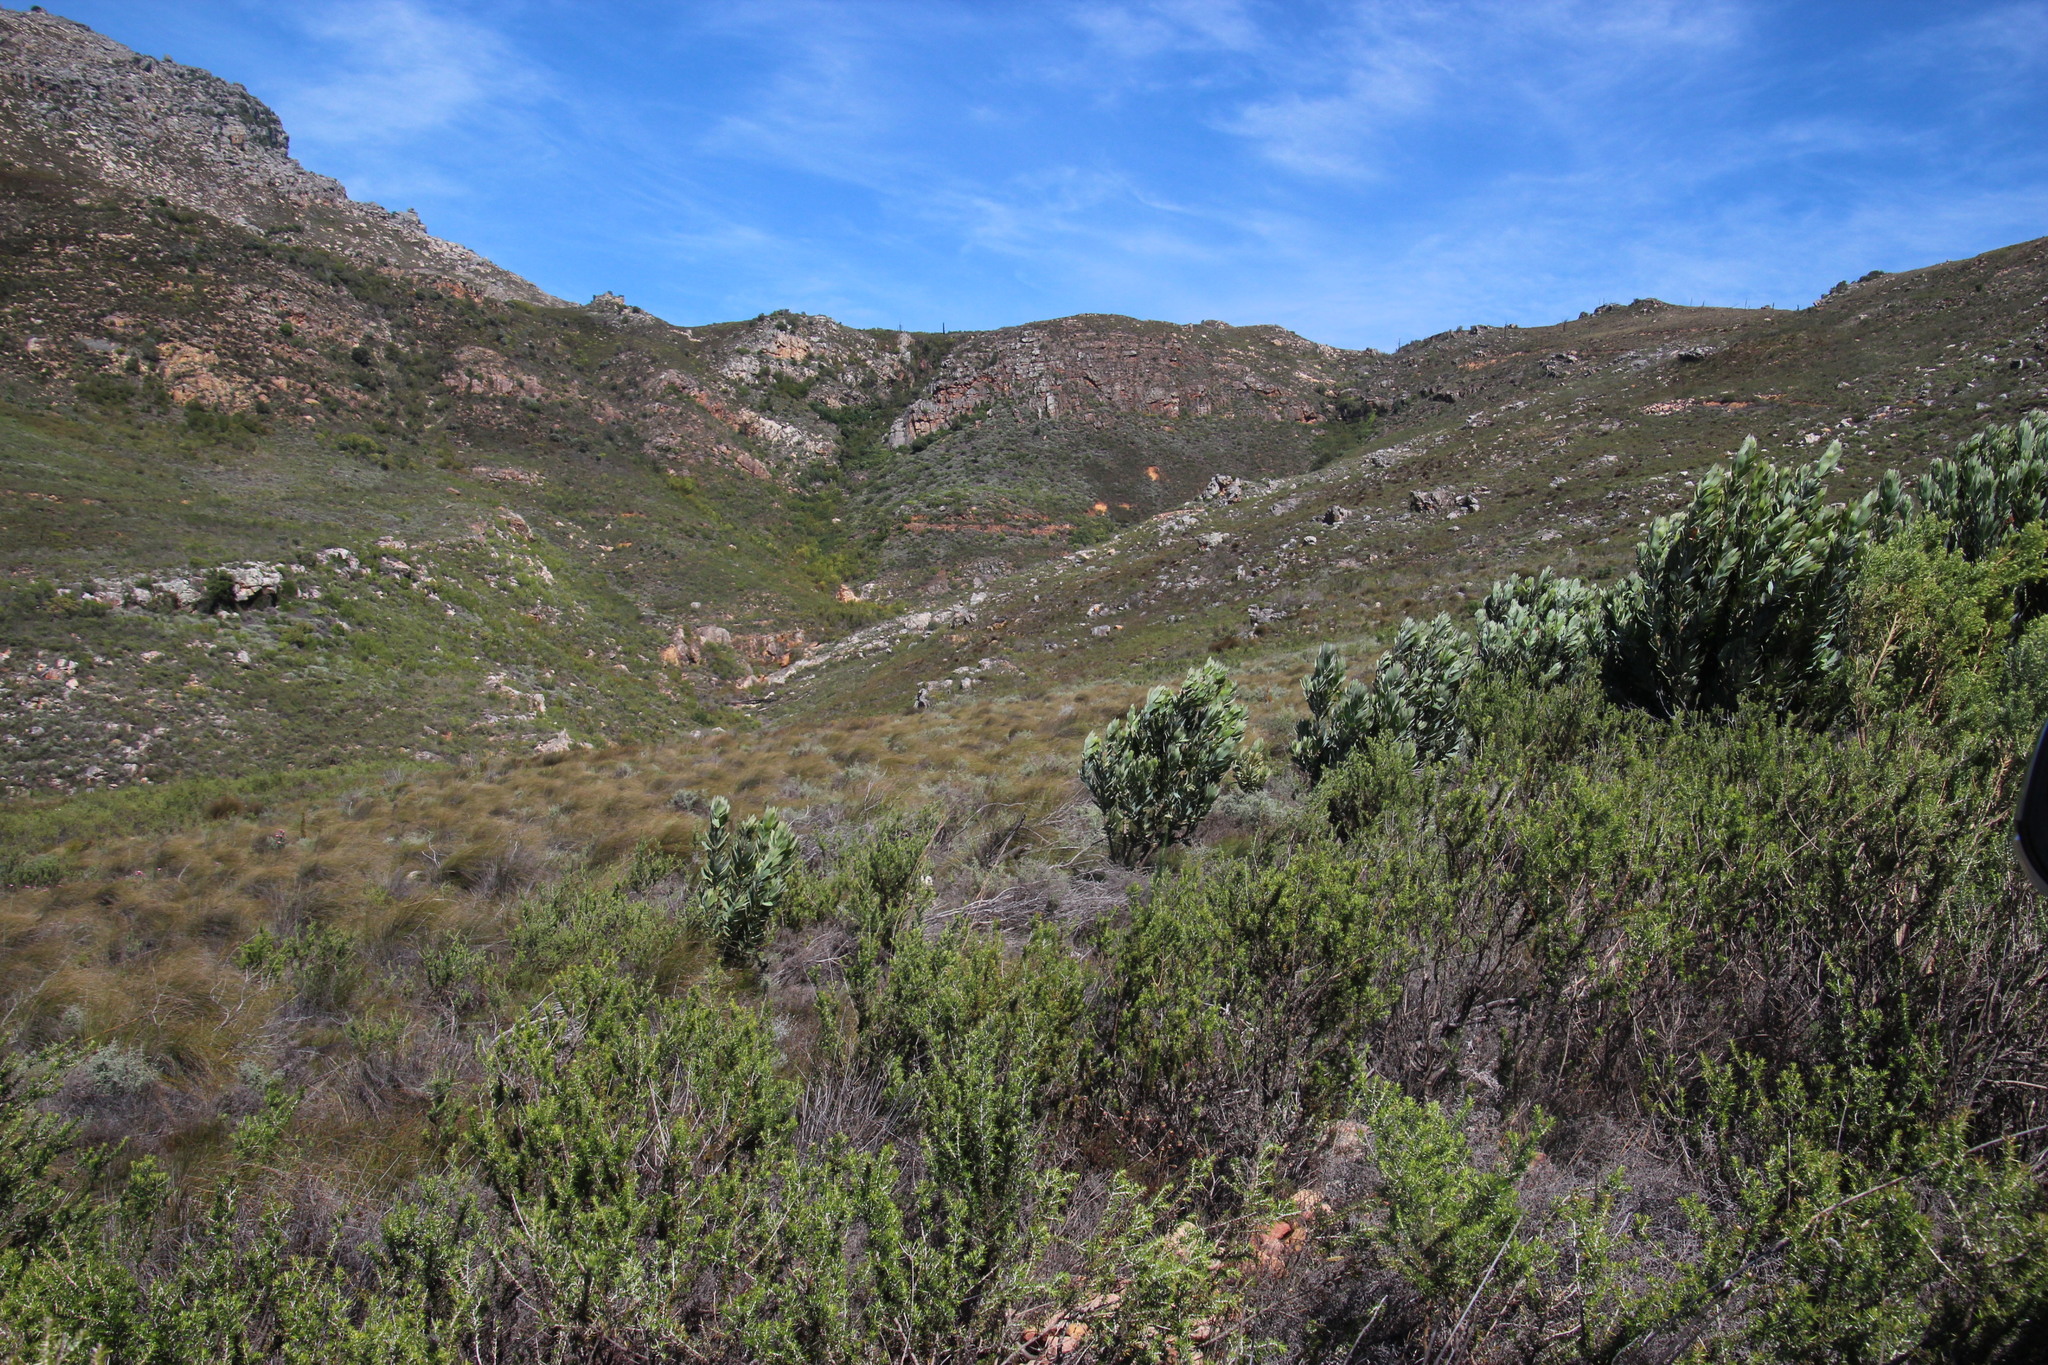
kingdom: Plantae
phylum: Tracheophyta
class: Magnoliopsida
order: Proteales
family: Proteaceae
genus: Protea
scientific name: Protea laurifolia
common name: Grey-leaf sugarbsh
